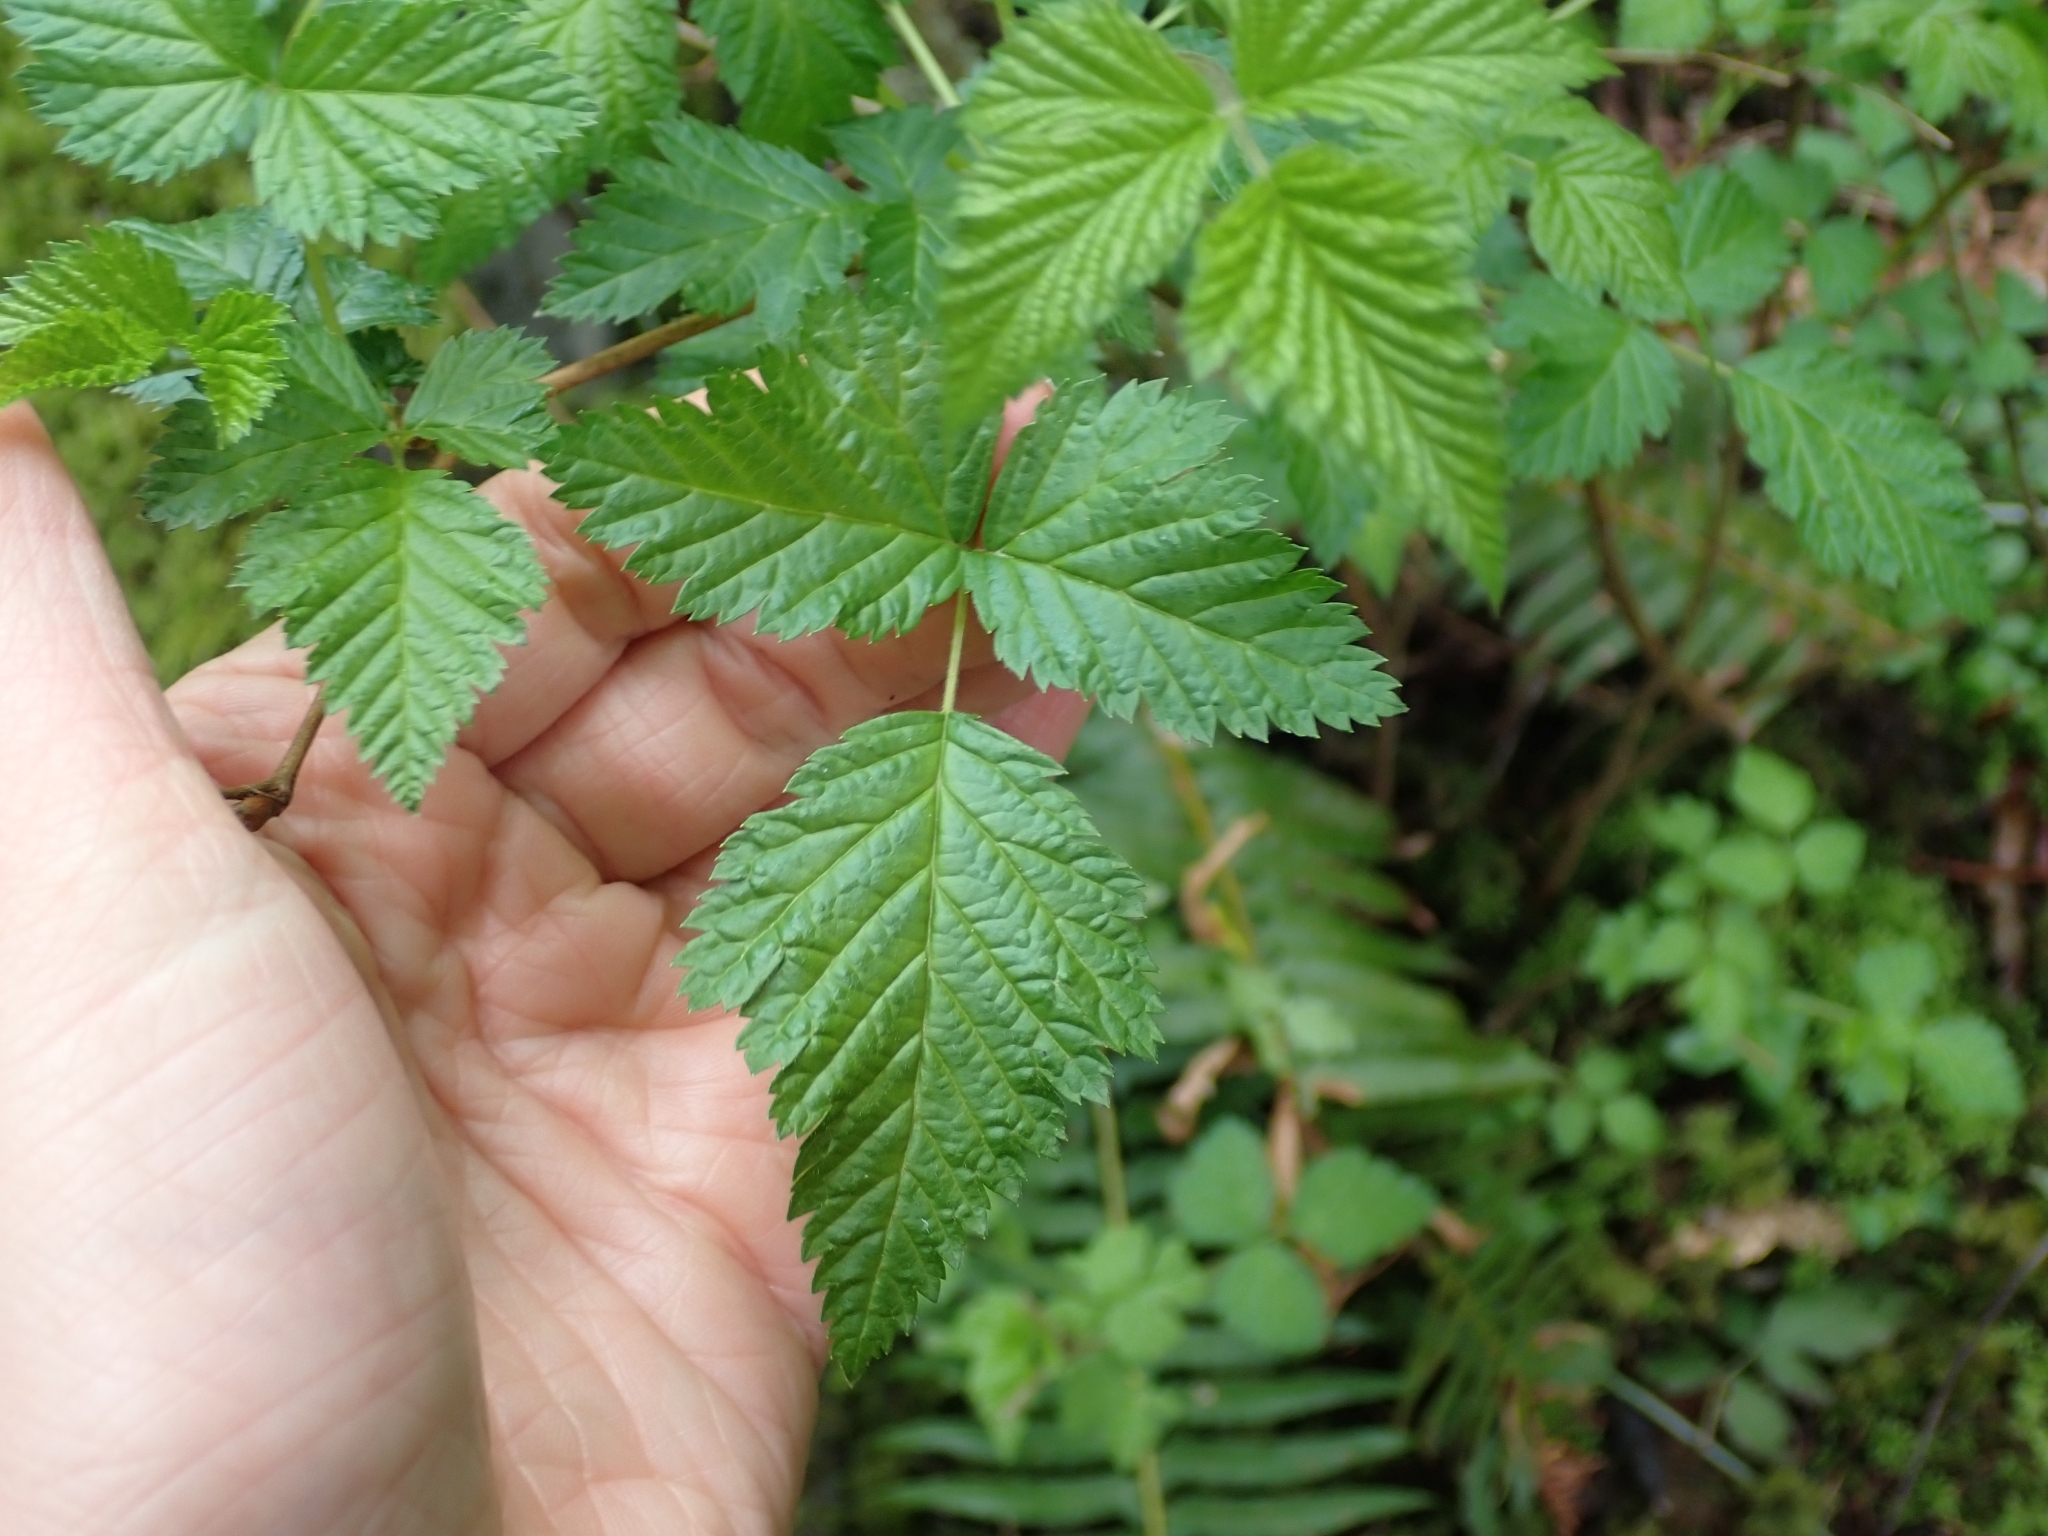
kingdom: Plantae
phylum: Tracheophyta
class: Magnoliopsida
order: Rosales
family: Rosaceae
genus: Rubus
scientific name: Rubus spectabilis
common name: Salmonberry
